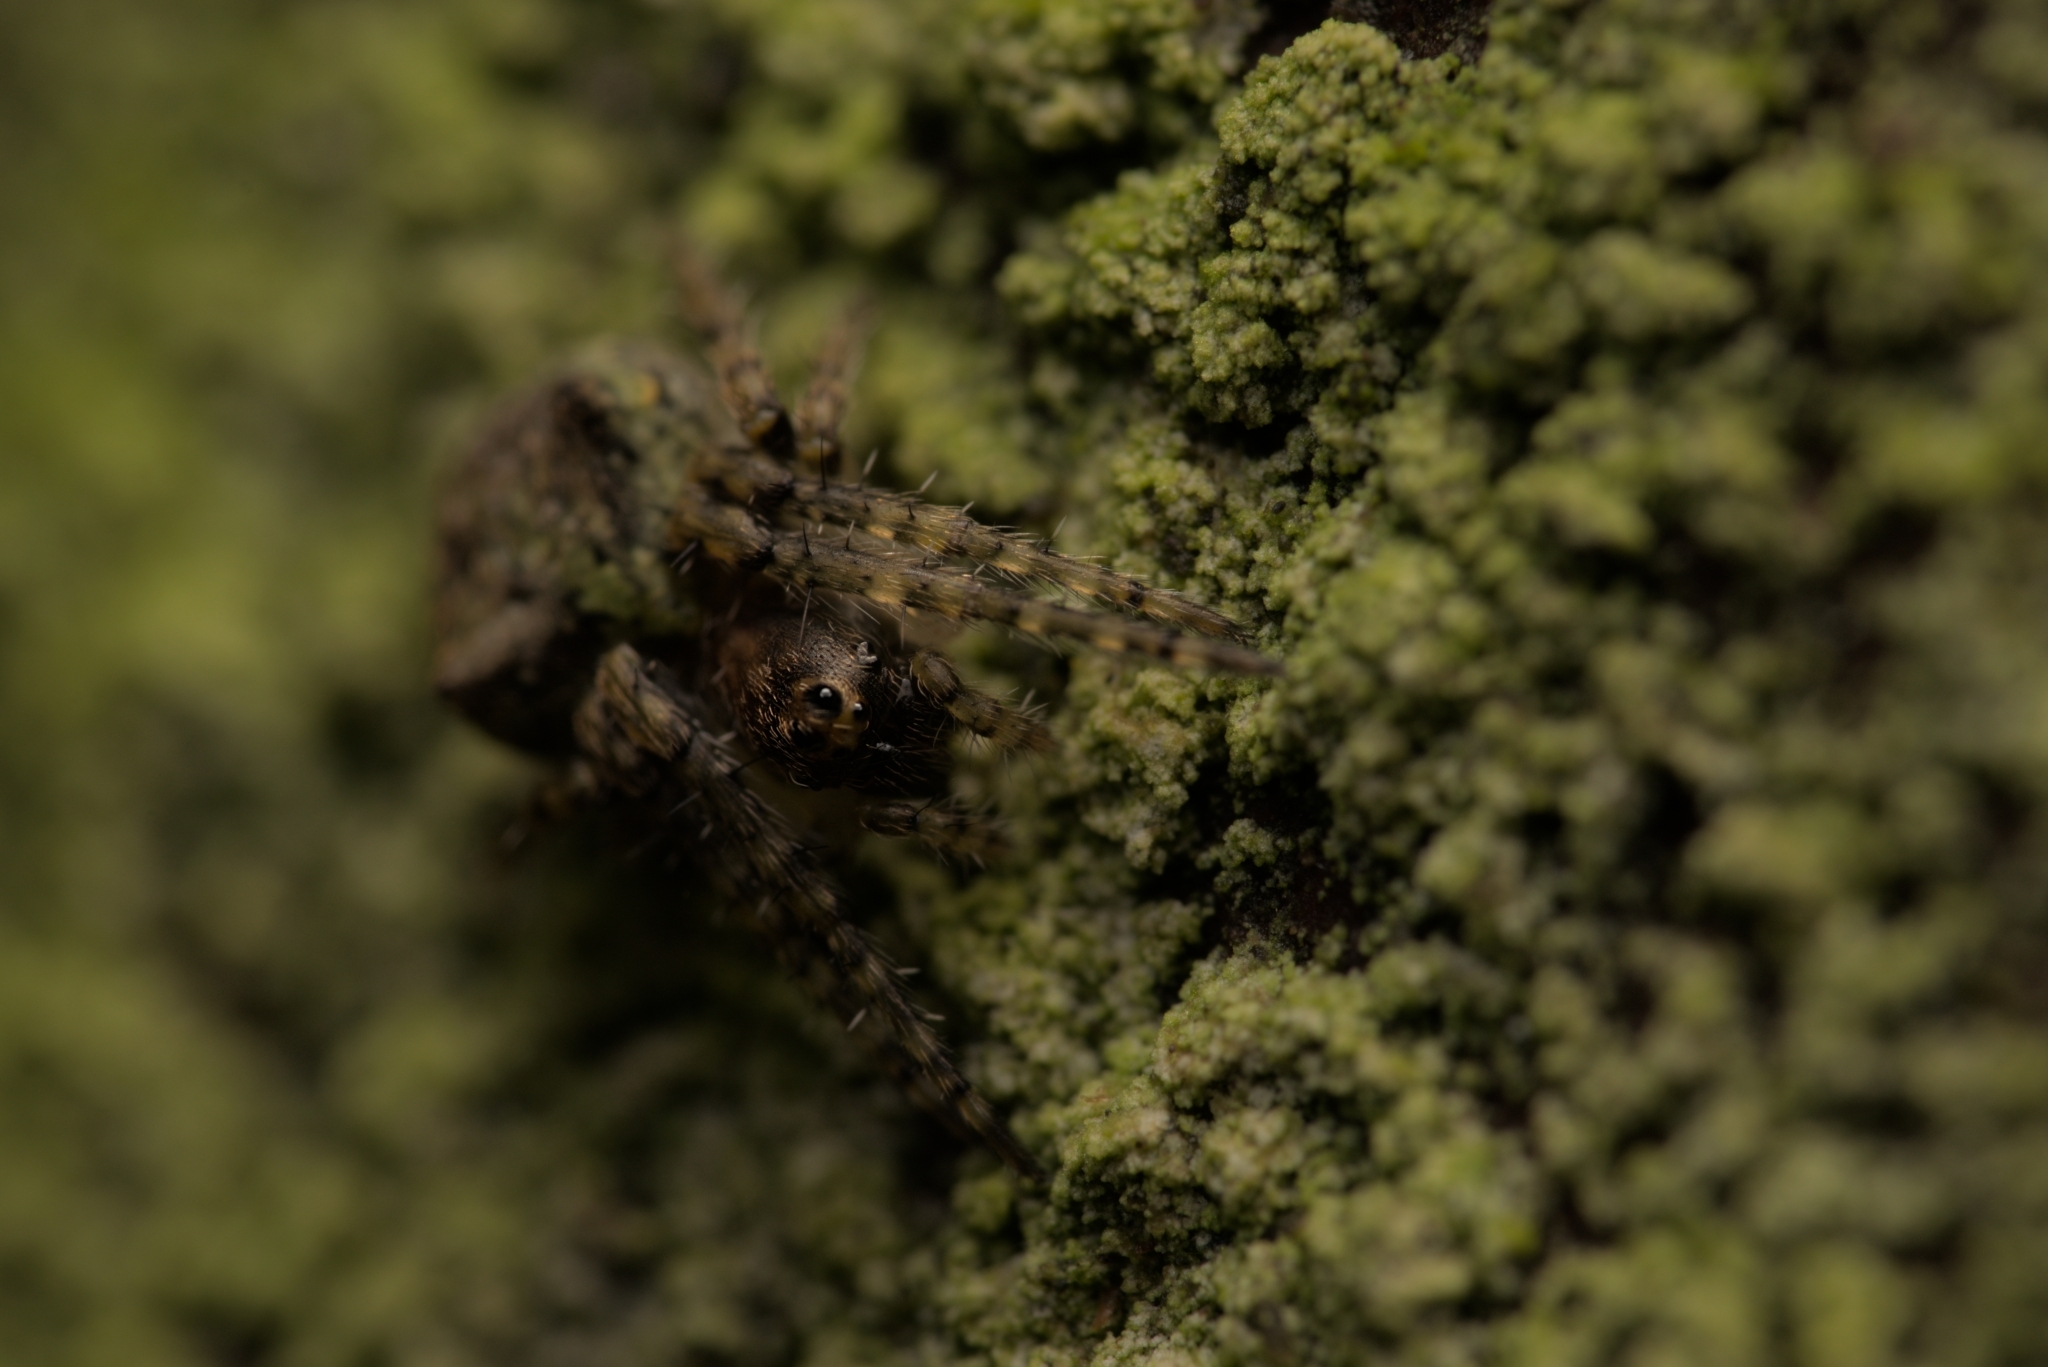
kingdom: Animalia
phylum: Arthropoda
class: Arachnida
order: Araneae
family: Araneidae
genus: Gibbaranea
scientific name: Gibbaranea gibbosa
